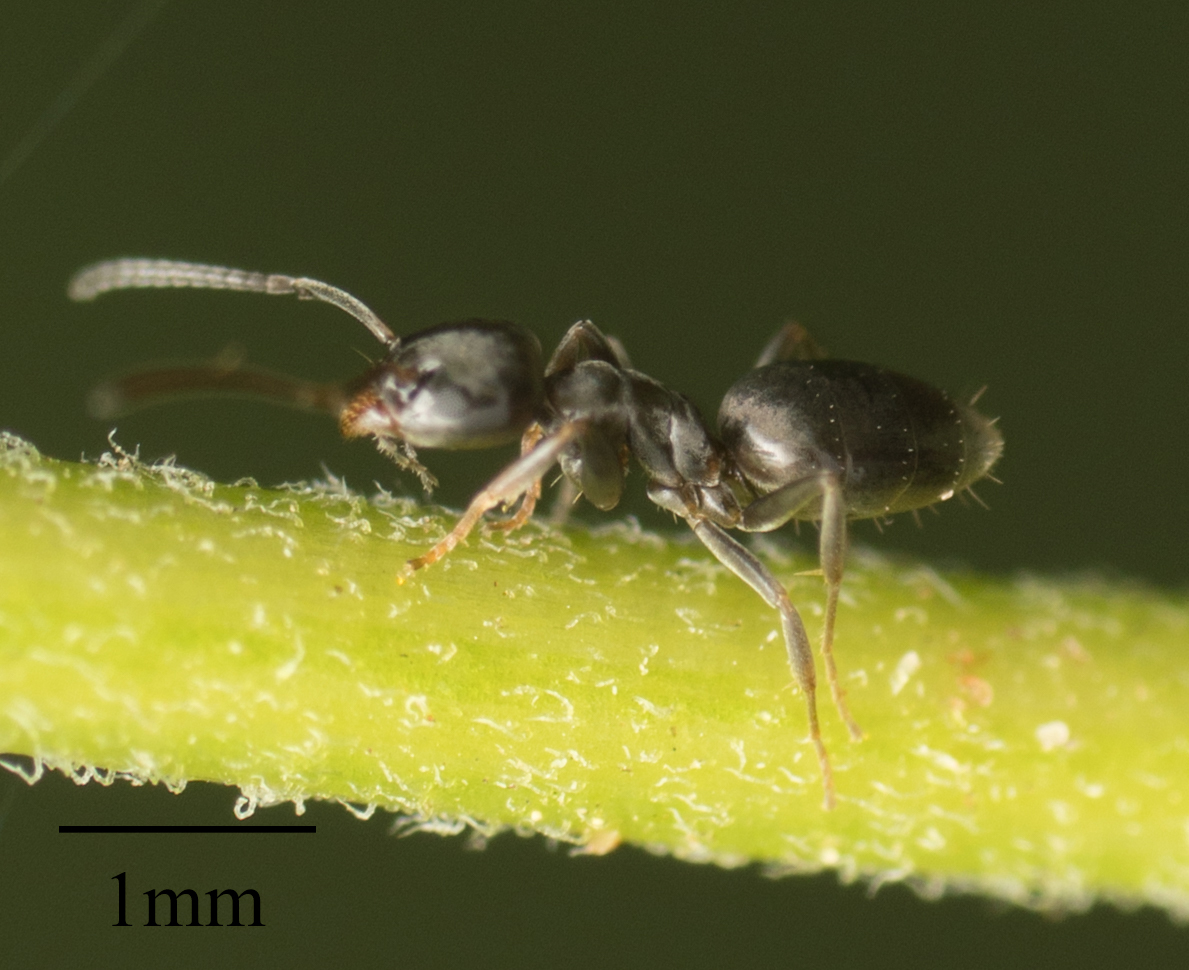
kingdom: Animalia
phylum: Arthropoda
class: Insecta
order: Hymenoptera
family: Formicidae
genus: Tapinoma
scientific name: Tapinoma sessile
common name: Odorous house ant
